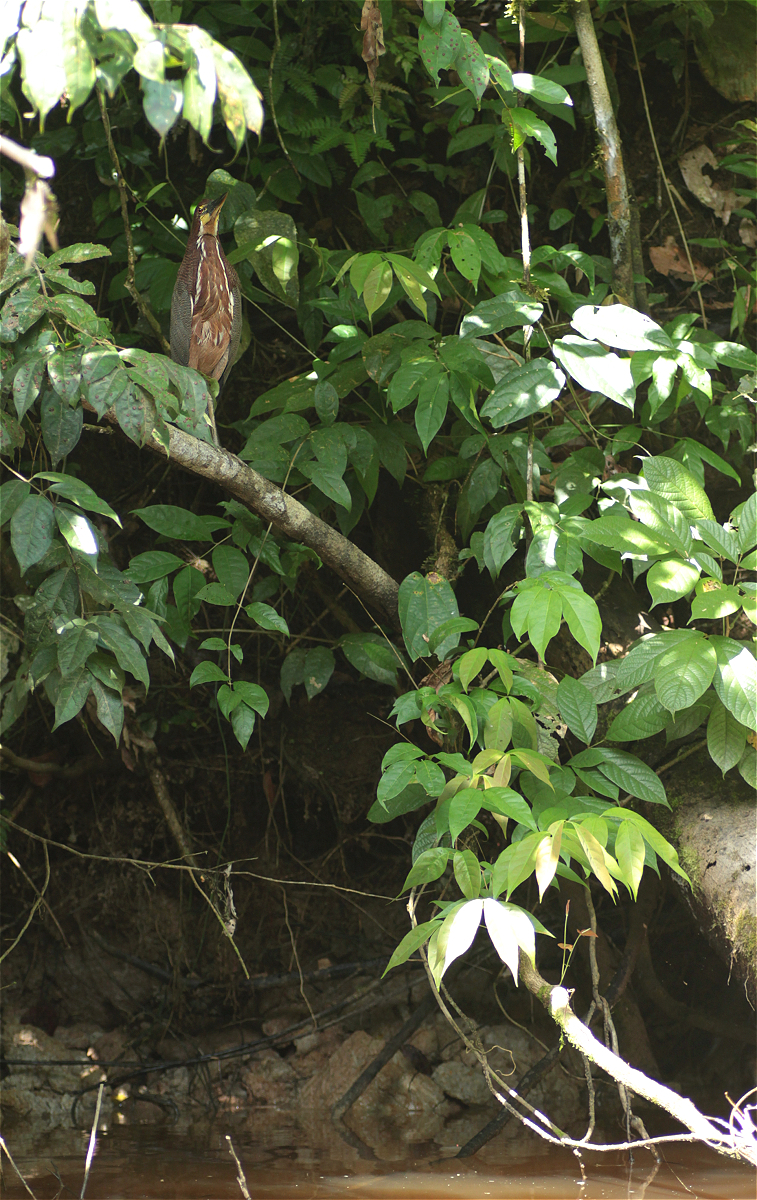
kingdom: Animalia
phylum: Chordata
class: Aves
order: Pelecaniformes
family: Ardeidae
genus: Tigrisoma
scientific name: Tigrisoma lineatum
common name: Rufescent tiger-heron
